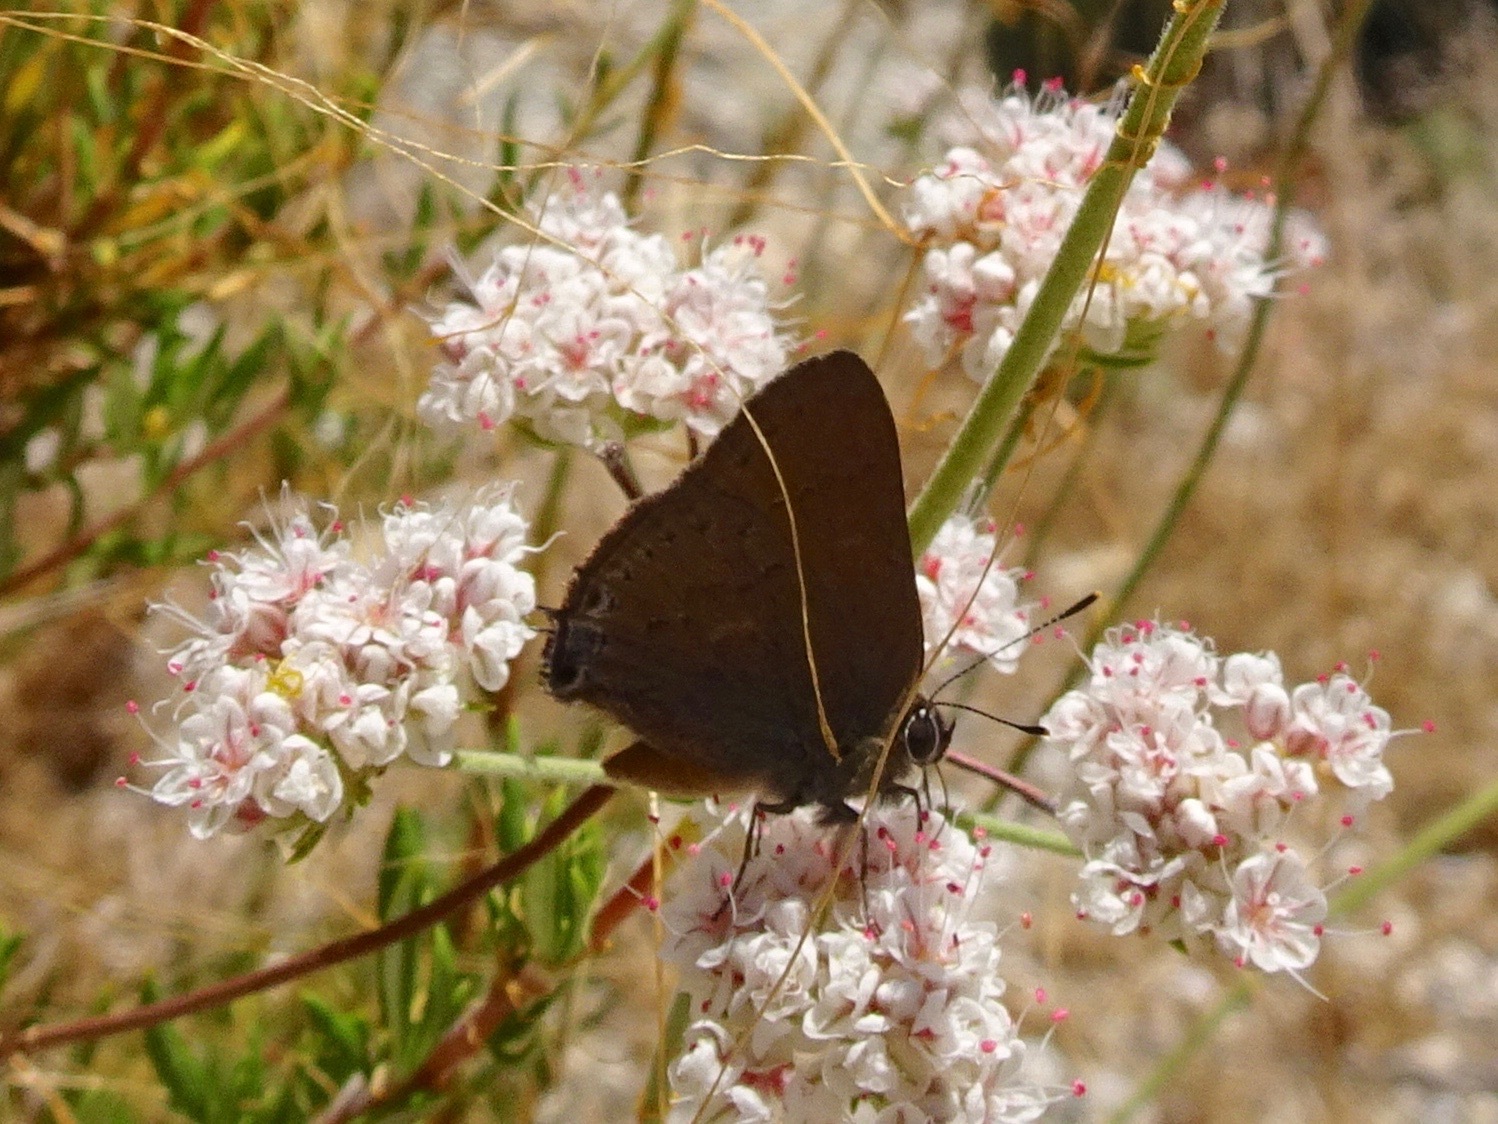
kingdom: Animalia
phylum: Arthropoda
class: Insecta
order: Lepidoptera
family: Lycaenidae
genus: Strymon
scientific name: Strymon saepium
